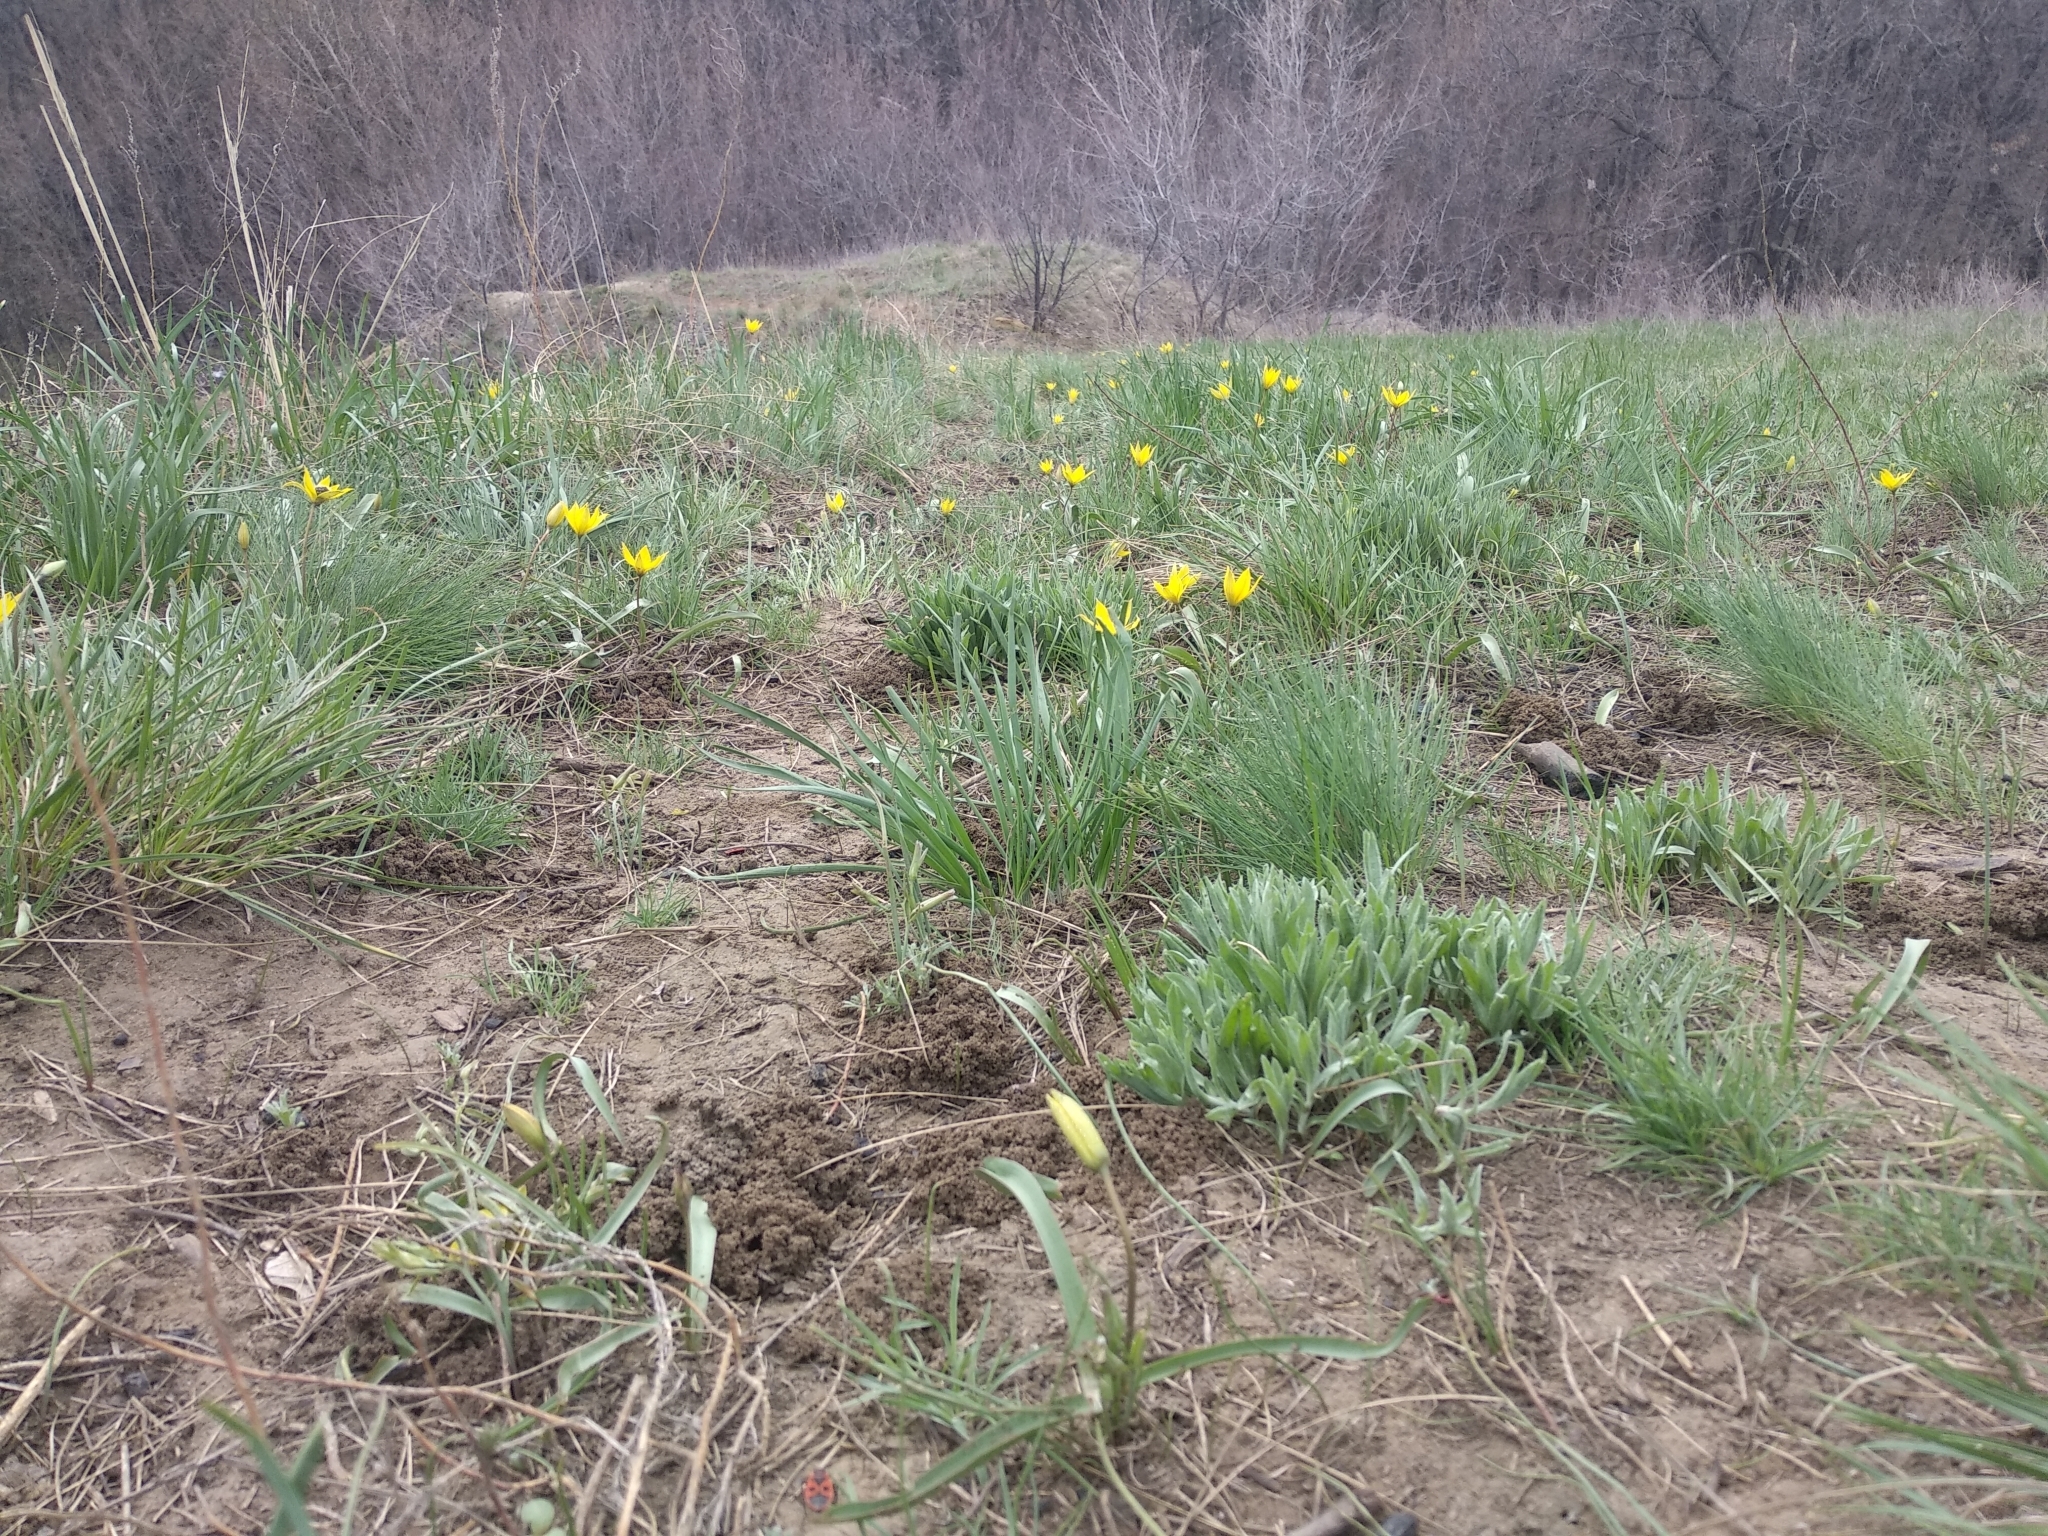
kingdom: Plantae
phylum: Tracheophyta
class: Liliopsida
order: Liliales
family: Liliaceae
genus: Tulipa
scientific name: Tulipa sylvestris
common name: Wild tulip
